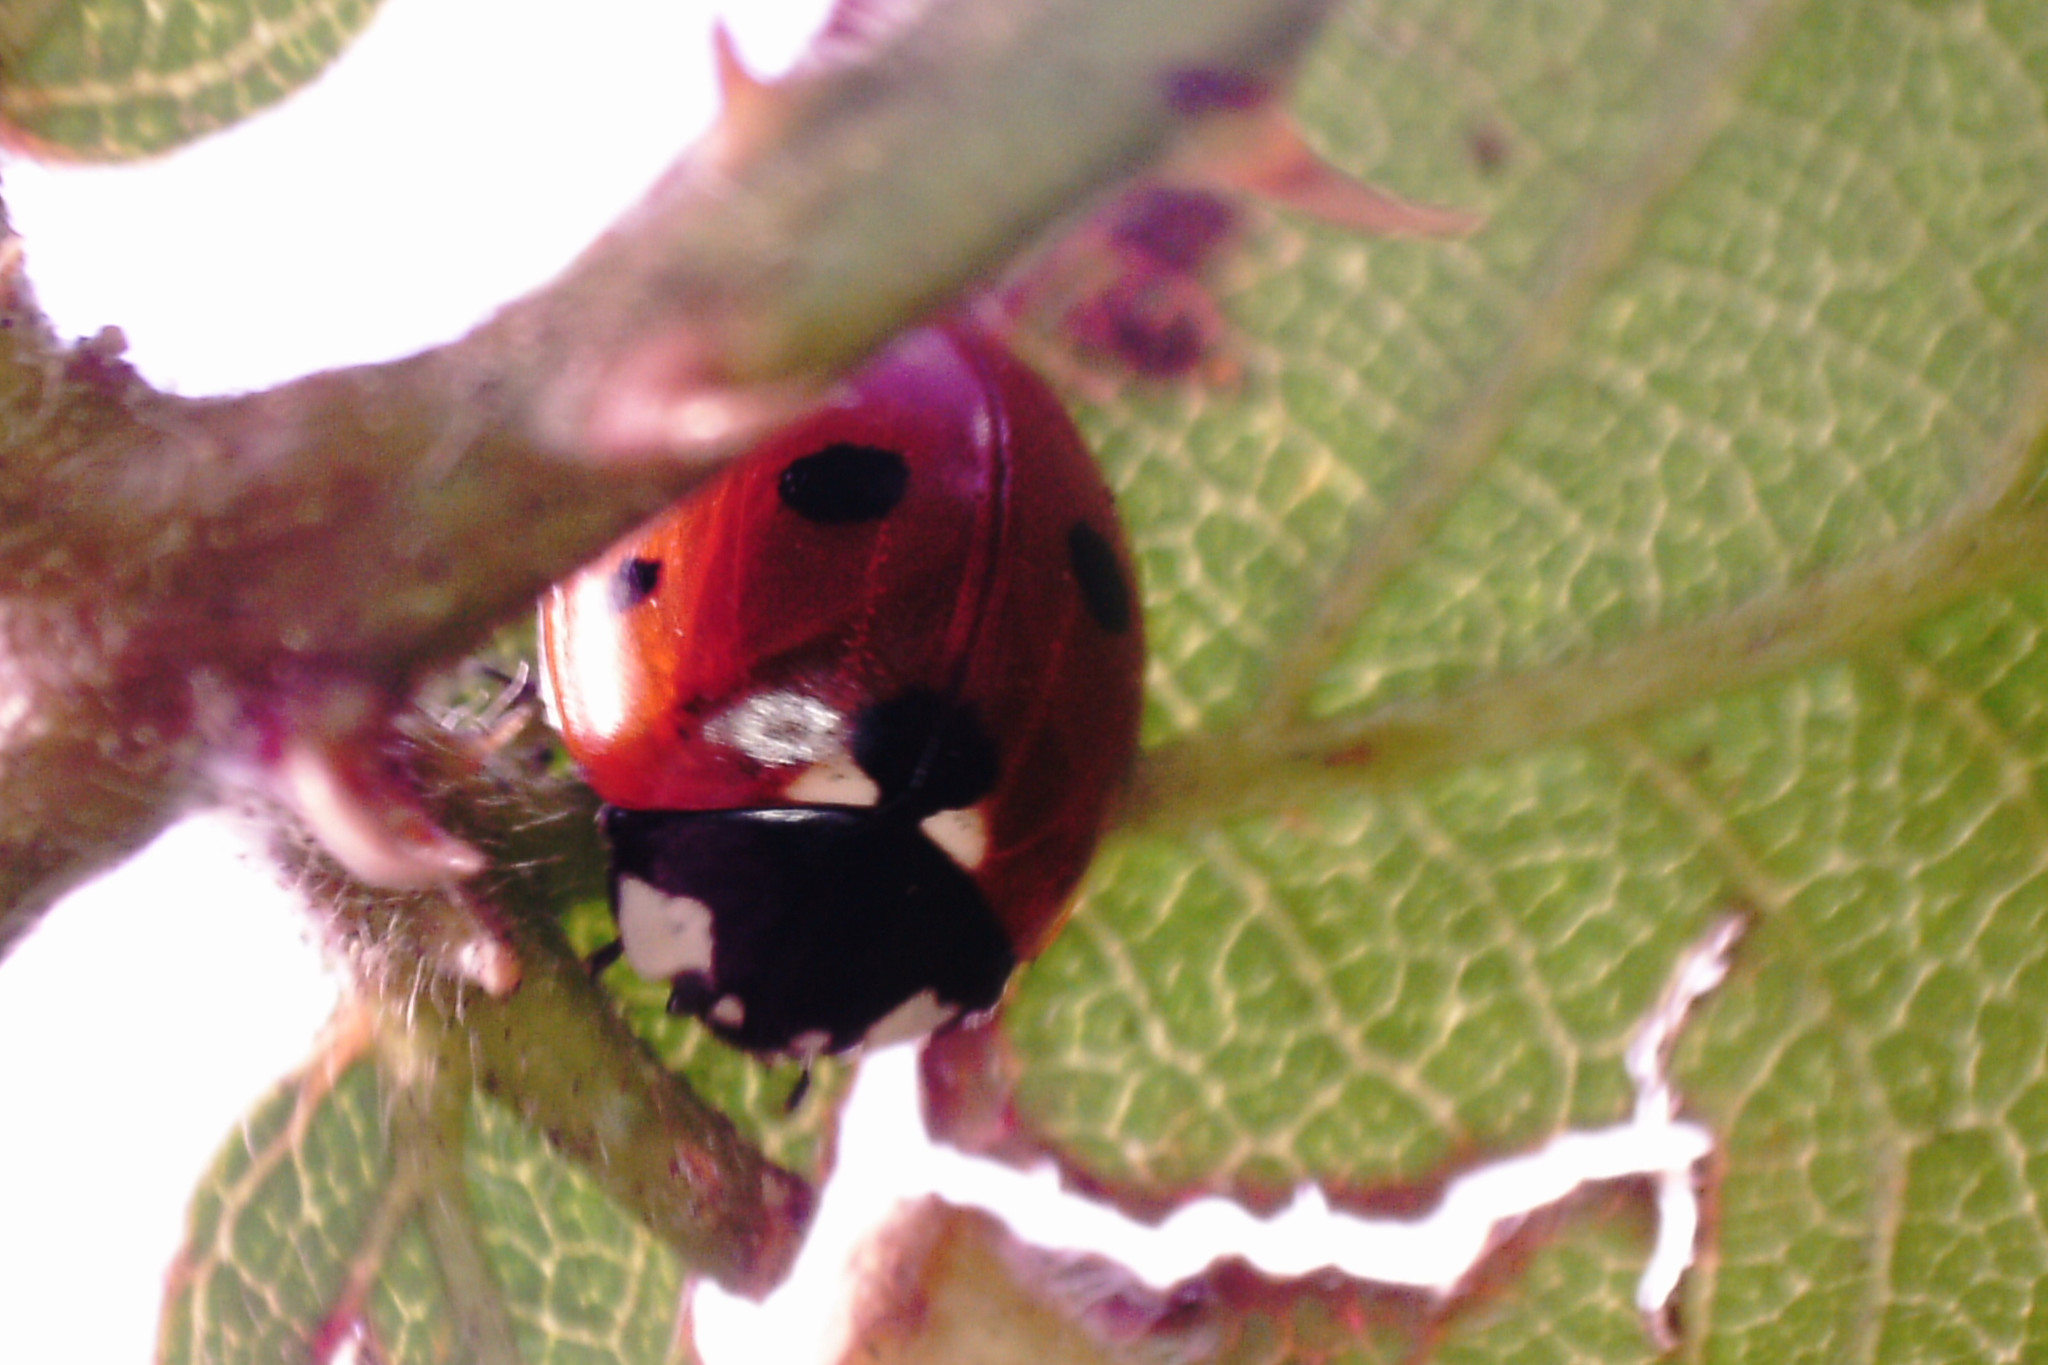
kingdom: Animalia
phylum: Arthropoda
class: Insecta
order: Coleoptera
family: Coccinellidae
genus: Coccinella
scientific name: Coccinella septempunctata
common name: Sevenspotted lady beetle
